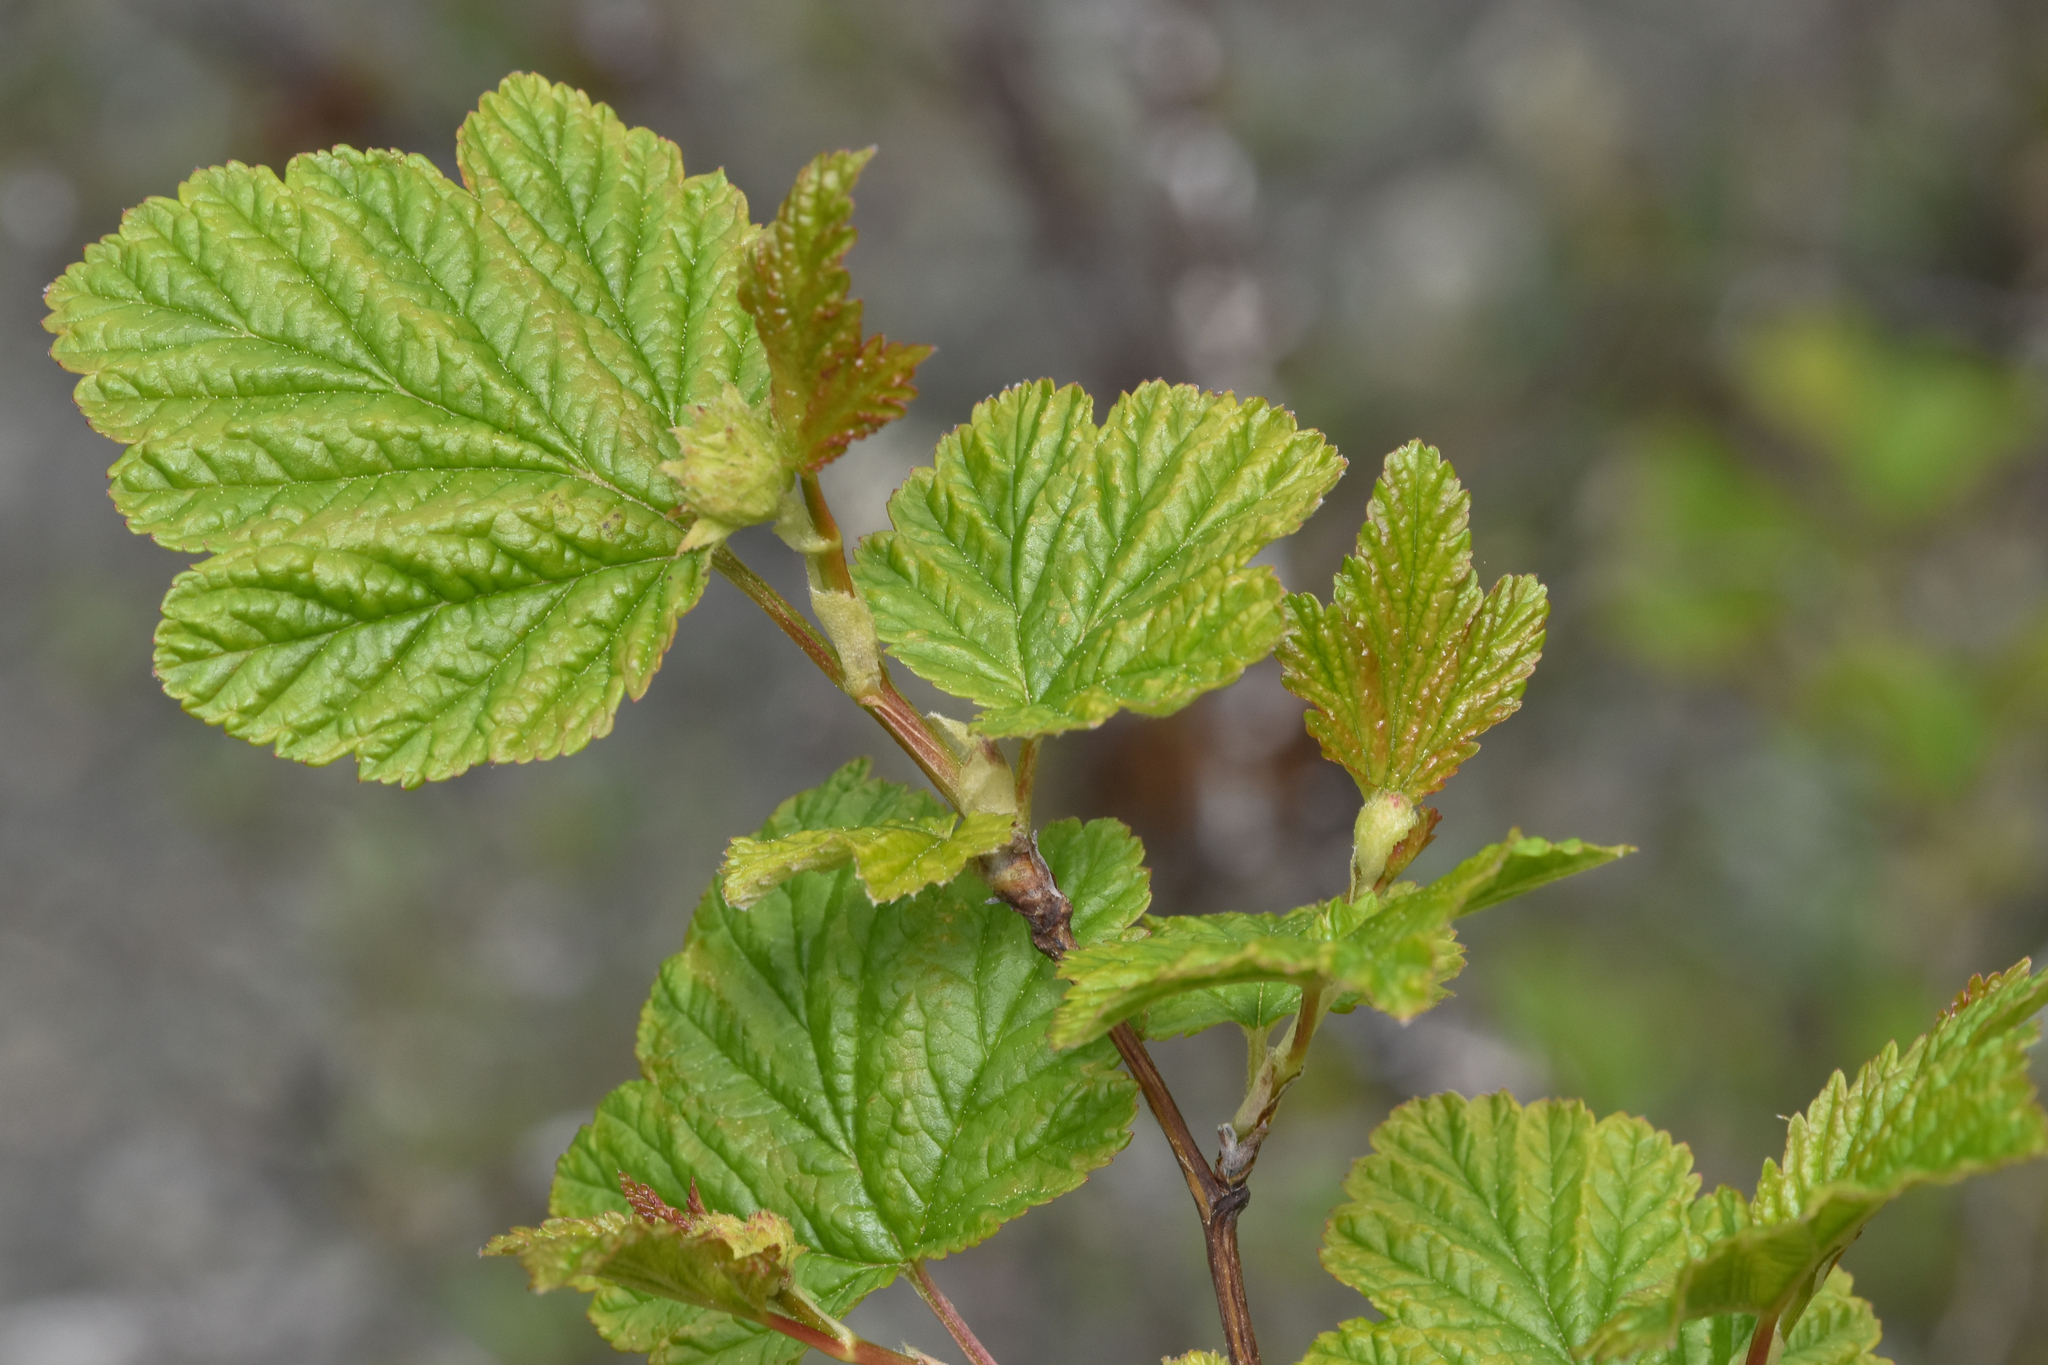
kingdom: Plantae
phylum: Tracheophyta
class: Magnoliopsida
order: Rosales
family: Rosaceae
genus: Physocarpus
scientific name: Physocarpus capitatus
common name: Pacific ninebark
